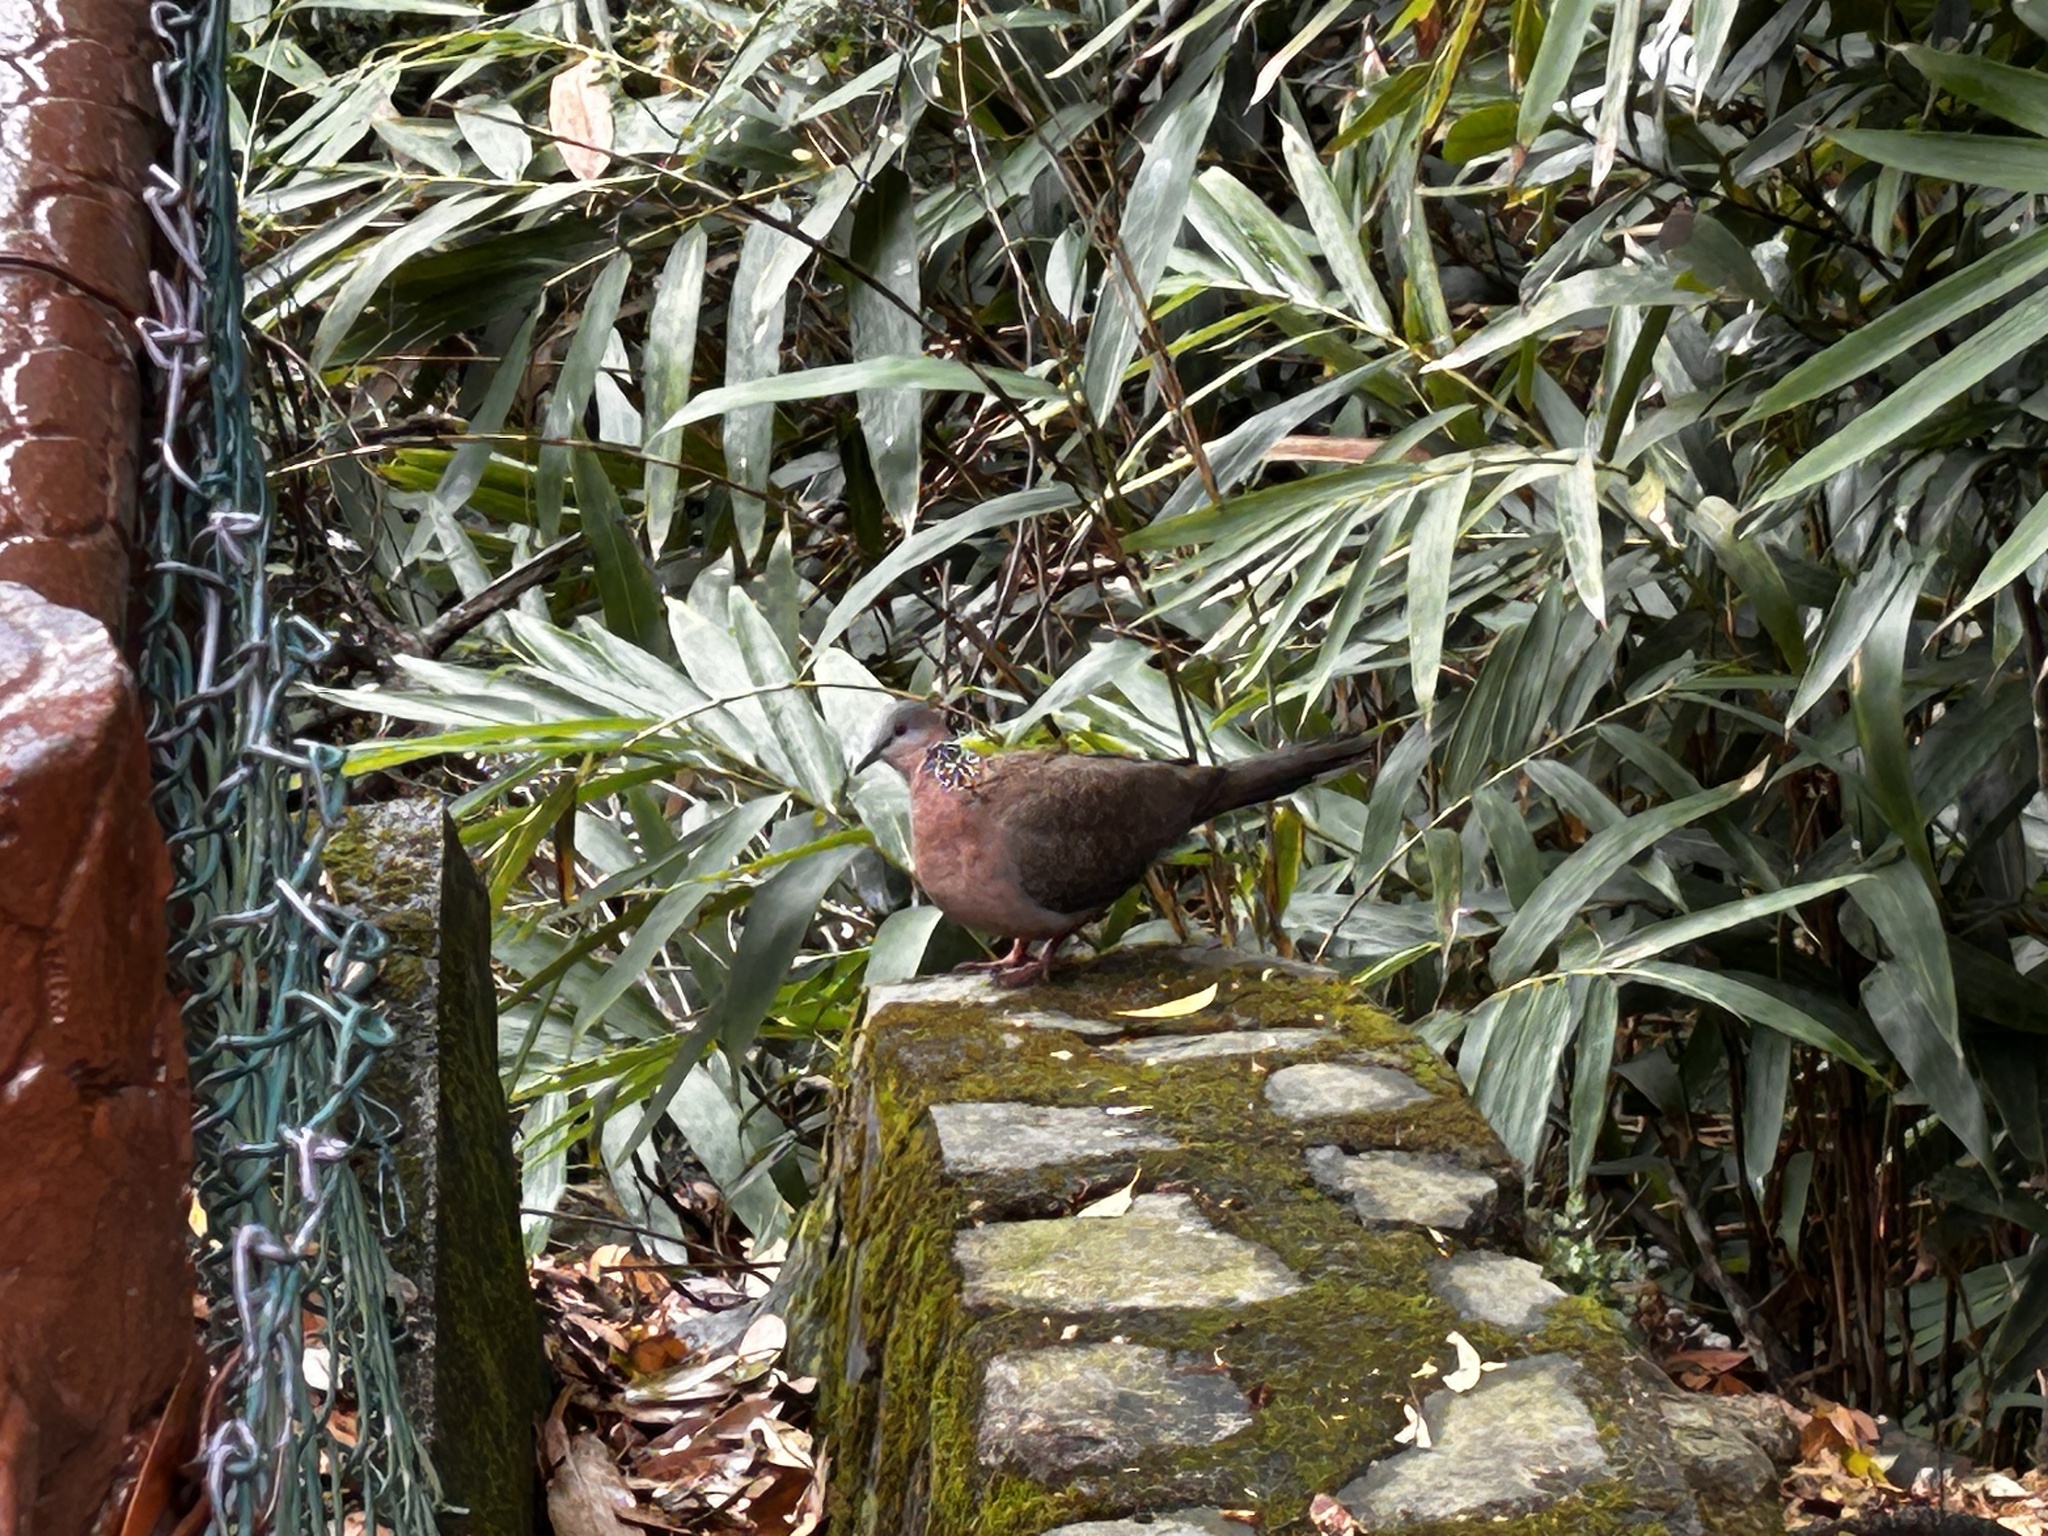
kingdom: Animalia
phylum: Chordata
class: Aves
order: Columbiformes
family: Columbidae
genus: Spilopelia
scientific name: Spilopelia chinensis
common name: Spotted dove
